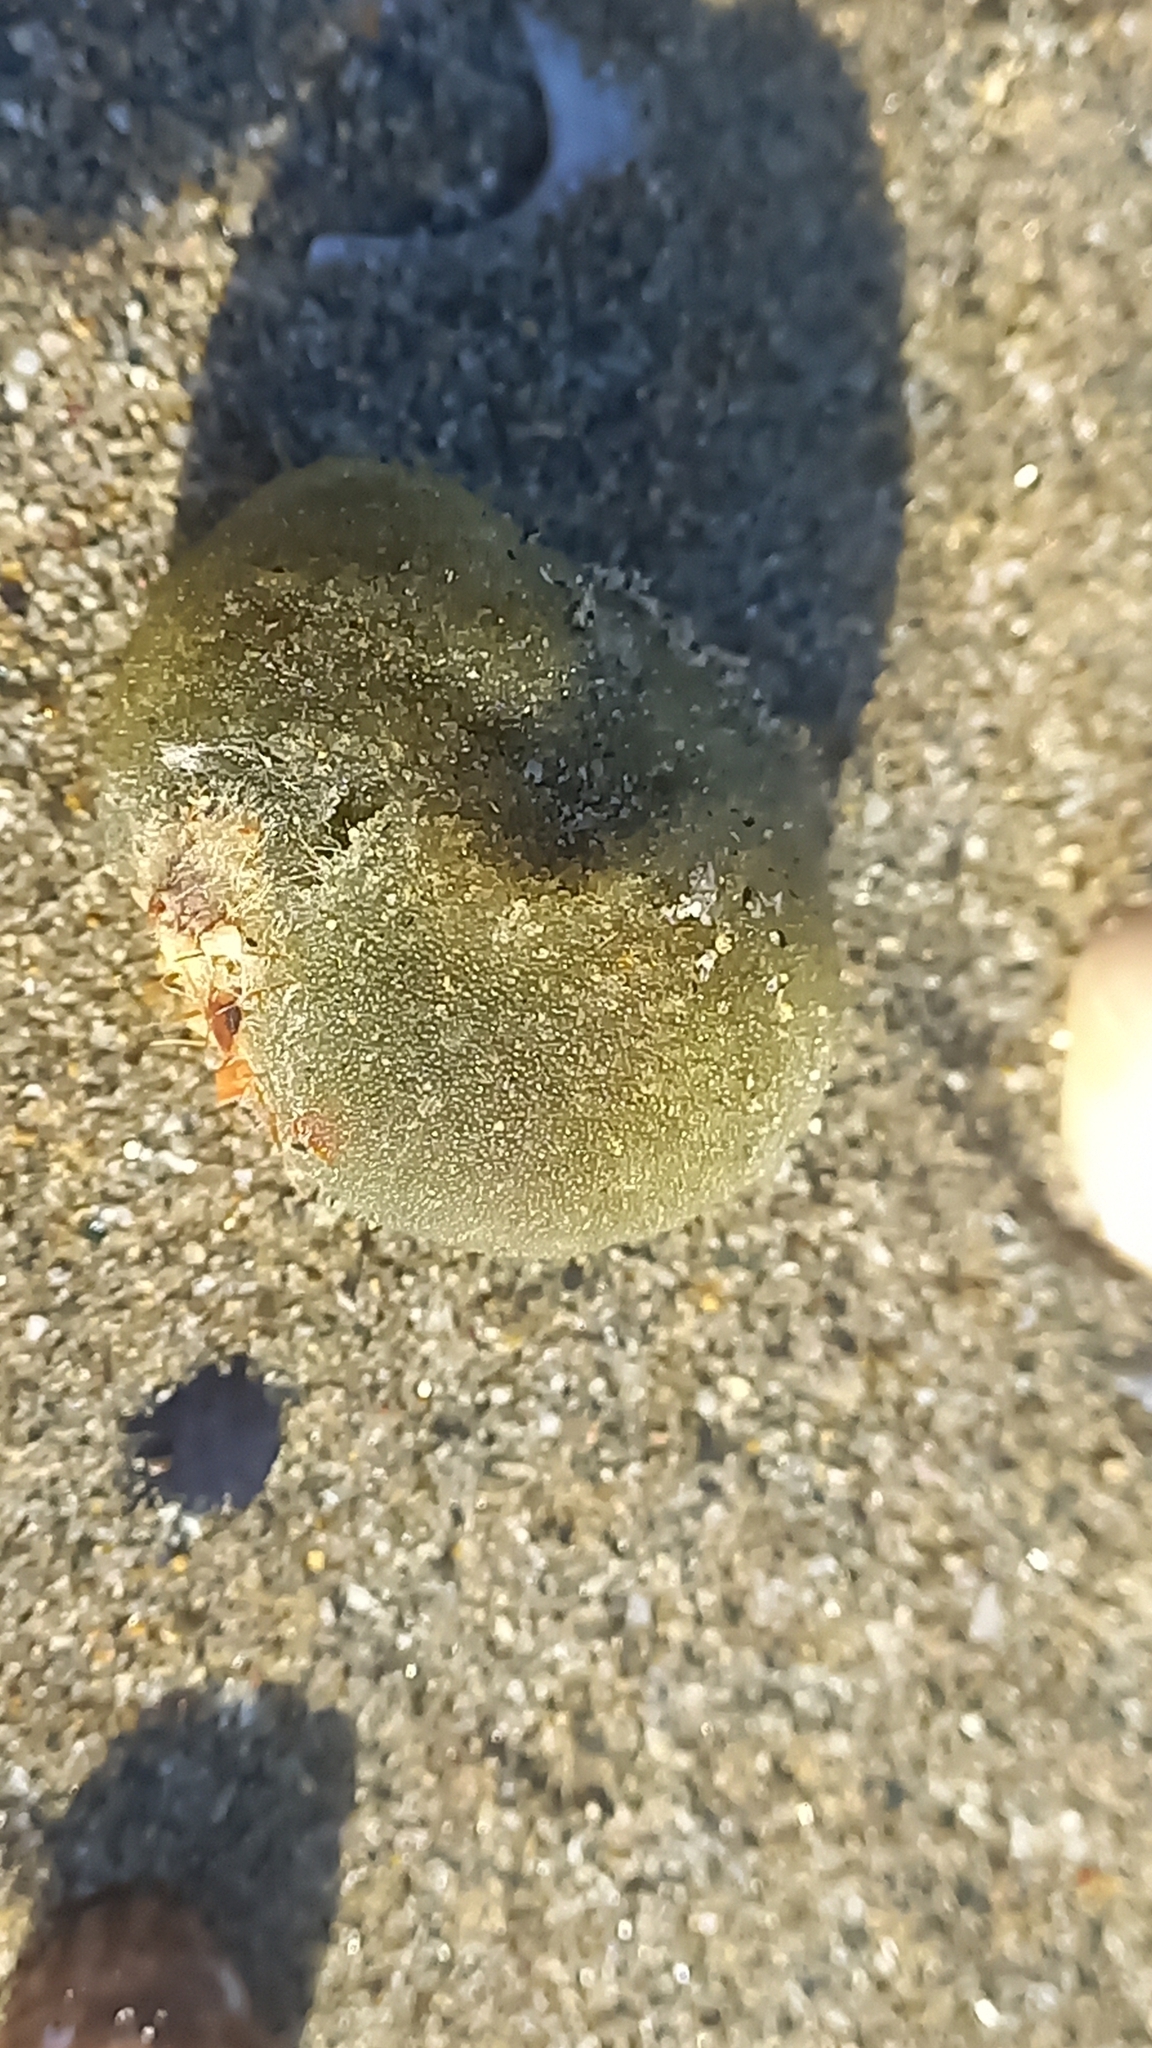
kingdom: Plantae
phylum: Chlorophyta
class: Ulvophyceae
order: Bryopsidales
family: Codiaceae
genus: Codium
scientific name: Codium bursa
